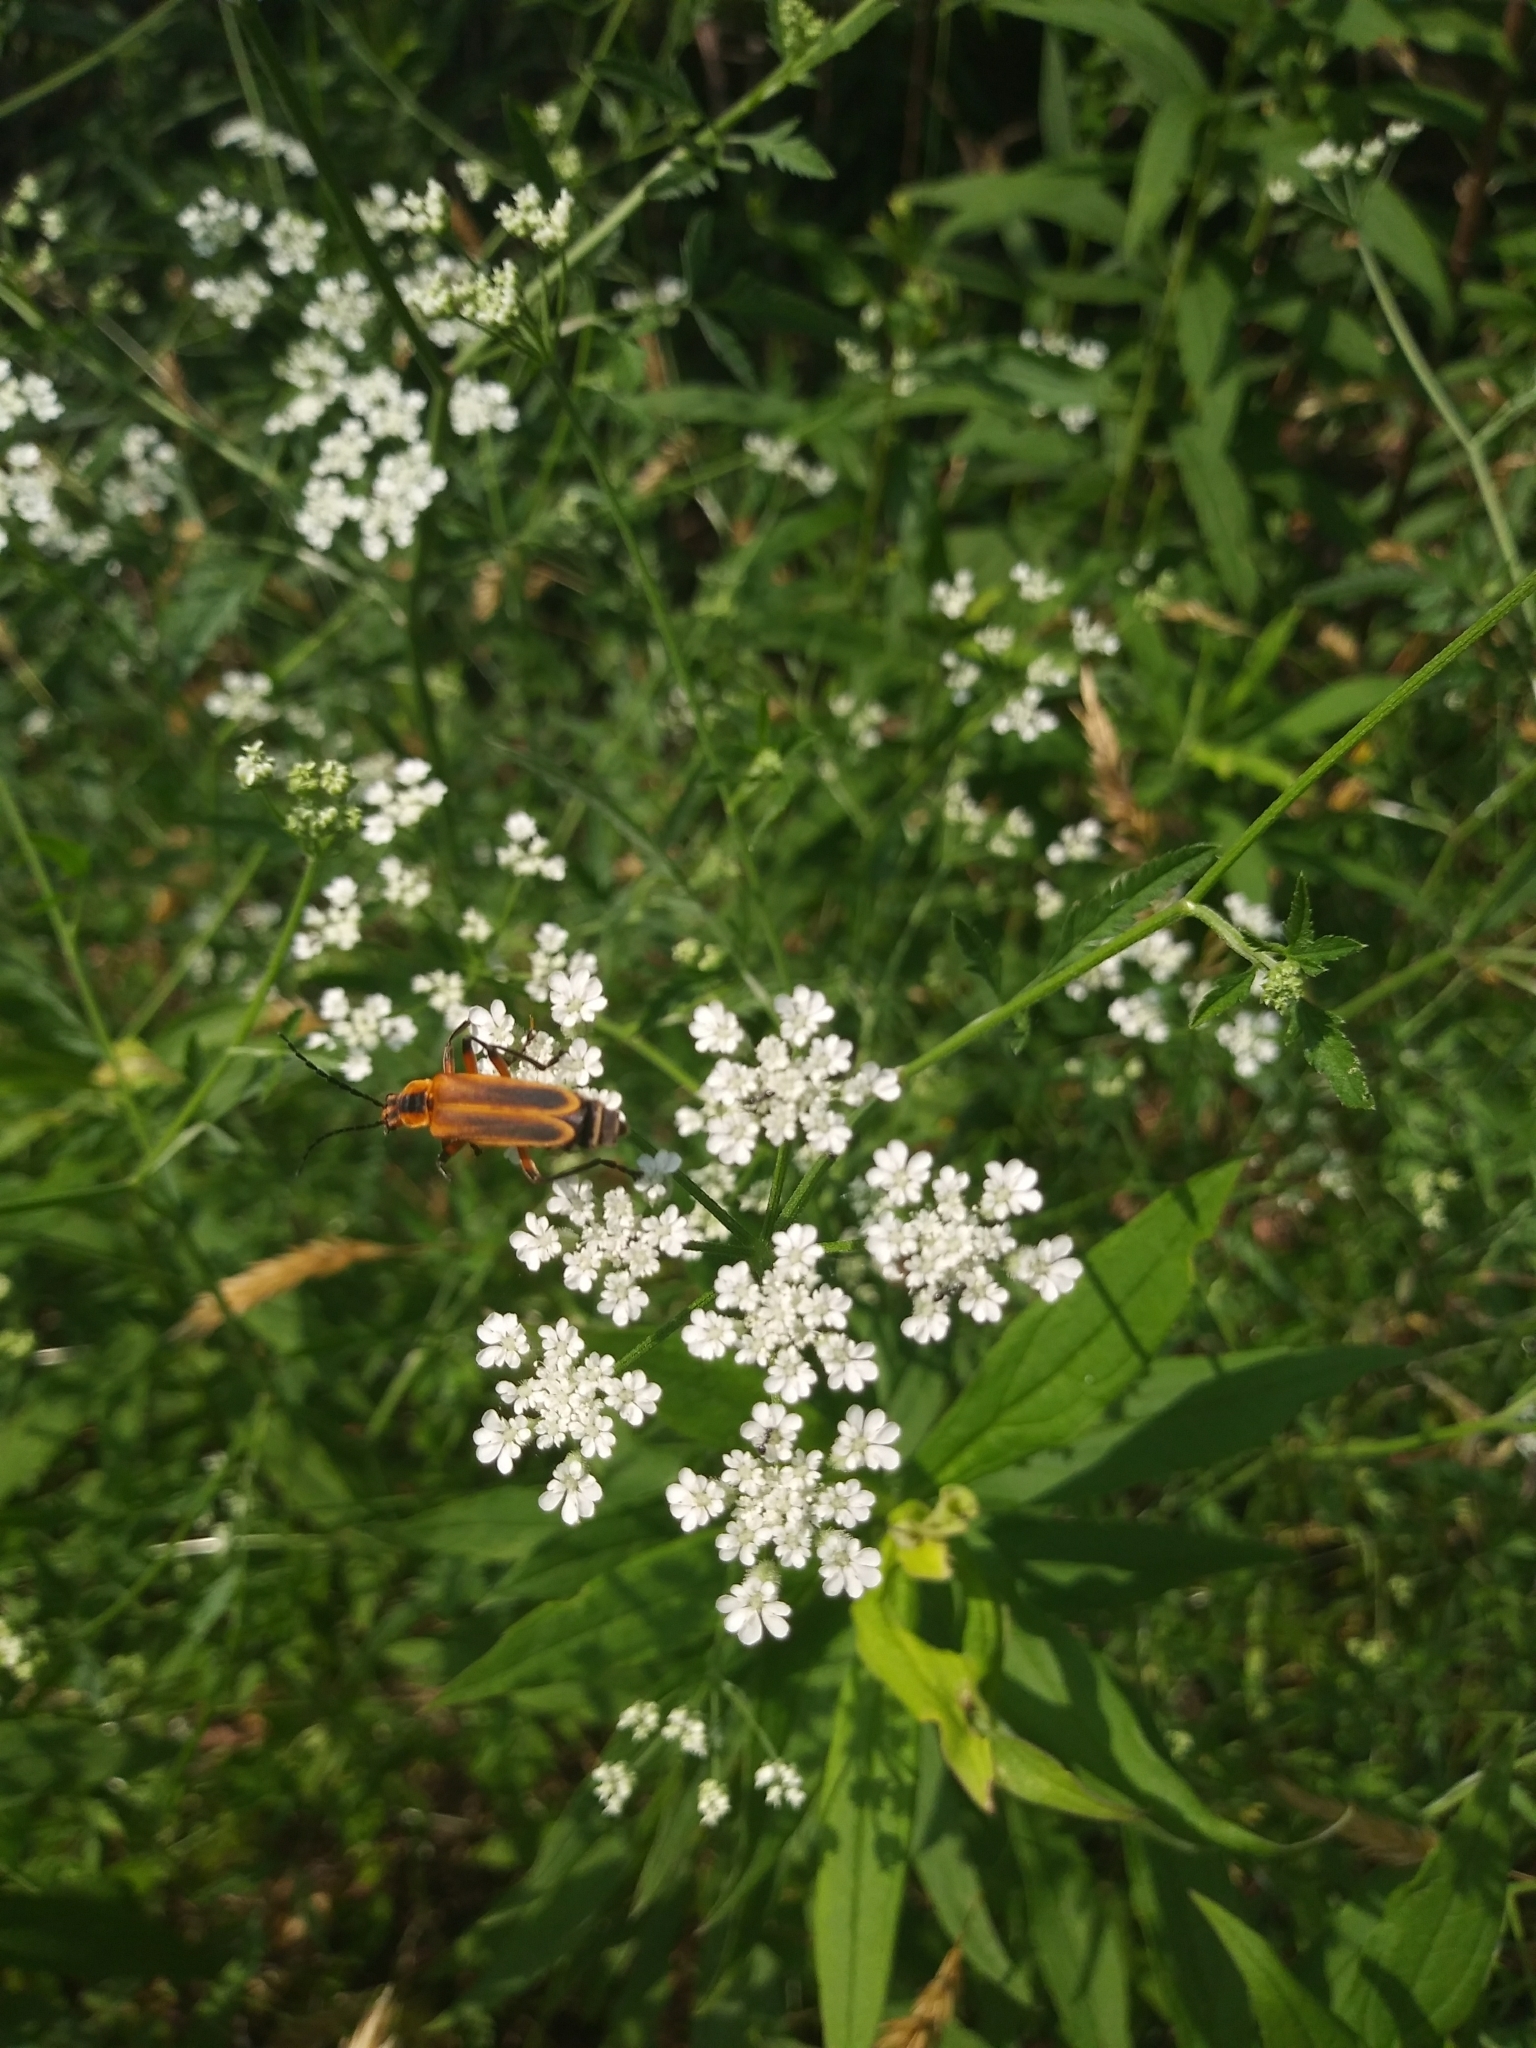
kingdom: Animalia
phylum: Arthropoda
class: Insecta
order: Coleoptera
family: Cantharidae
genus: Chauliognathus
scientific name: Chauliognathus marginatus
